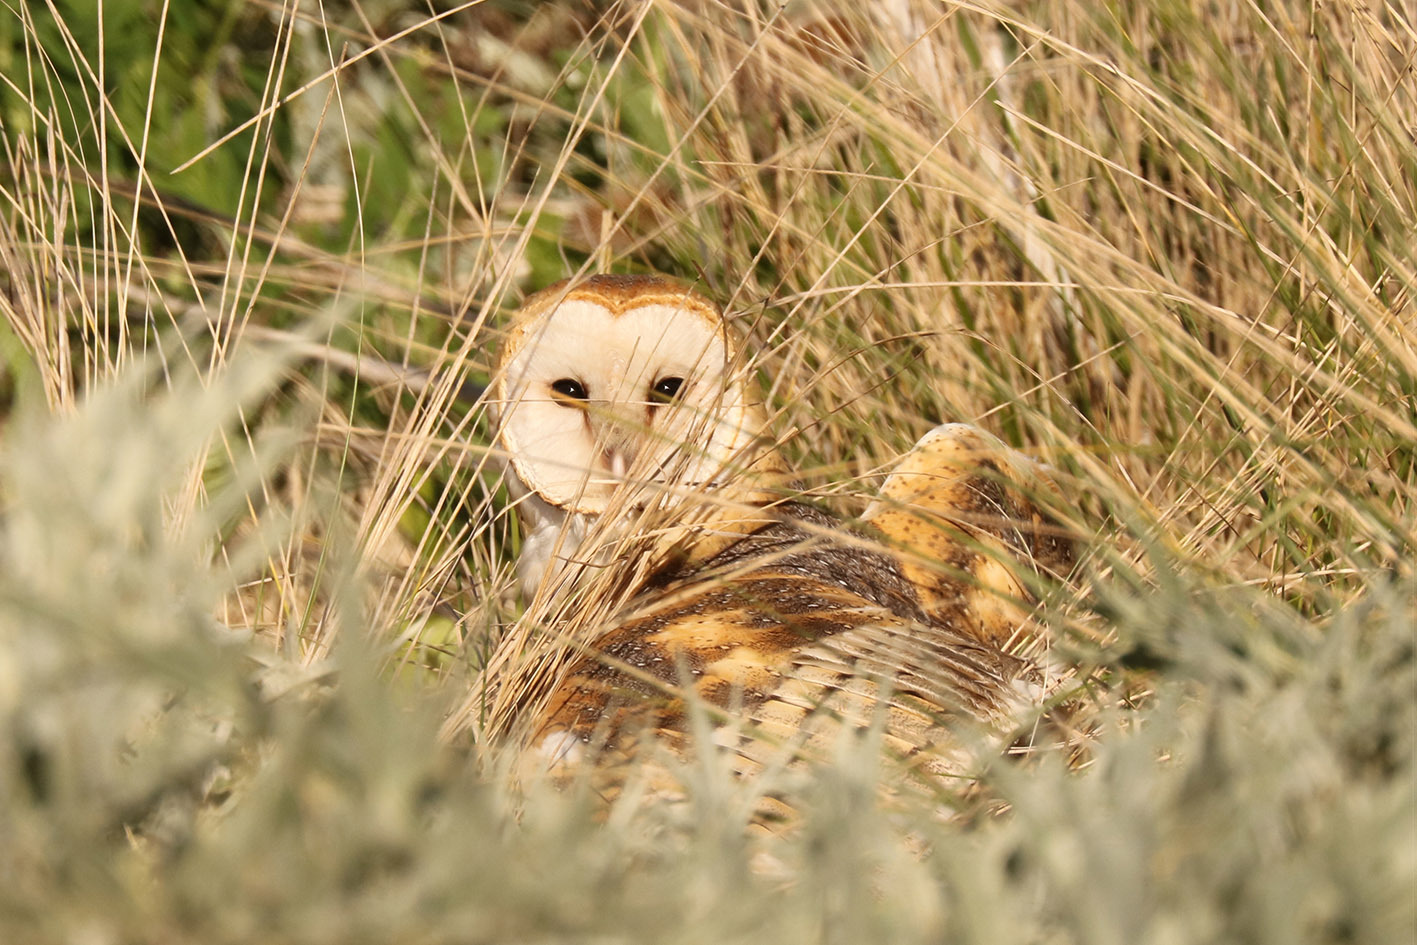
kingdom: Animalia
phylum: Chordata
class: Aves
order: Strigiformes
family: Tytonidae
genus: Tyto
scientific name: Tyto alba
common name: Barn owl
